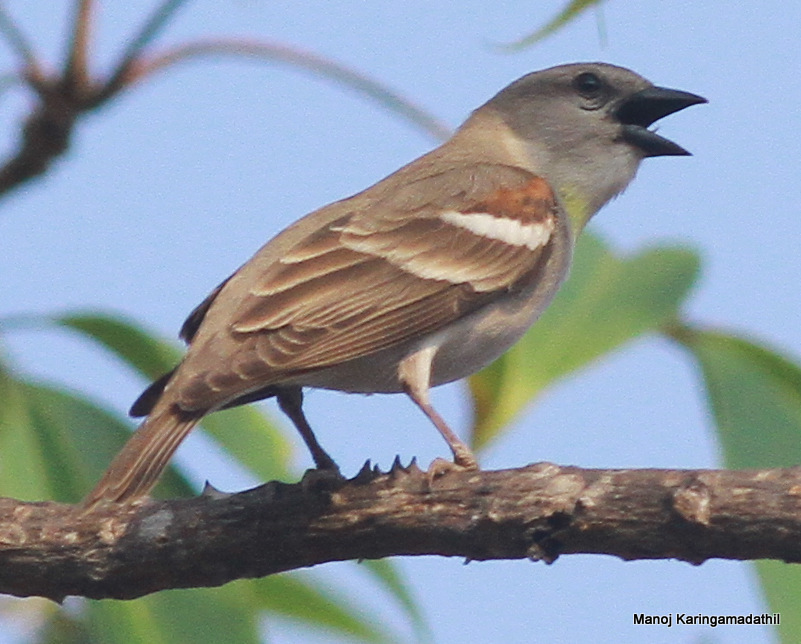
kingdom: Animalia
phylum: Chordata
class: Aves
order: Passeriformes
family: Passeridae
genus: Gymnoris
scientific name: Gymnoris xanthocollis
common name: Yellow-throated sparrow
